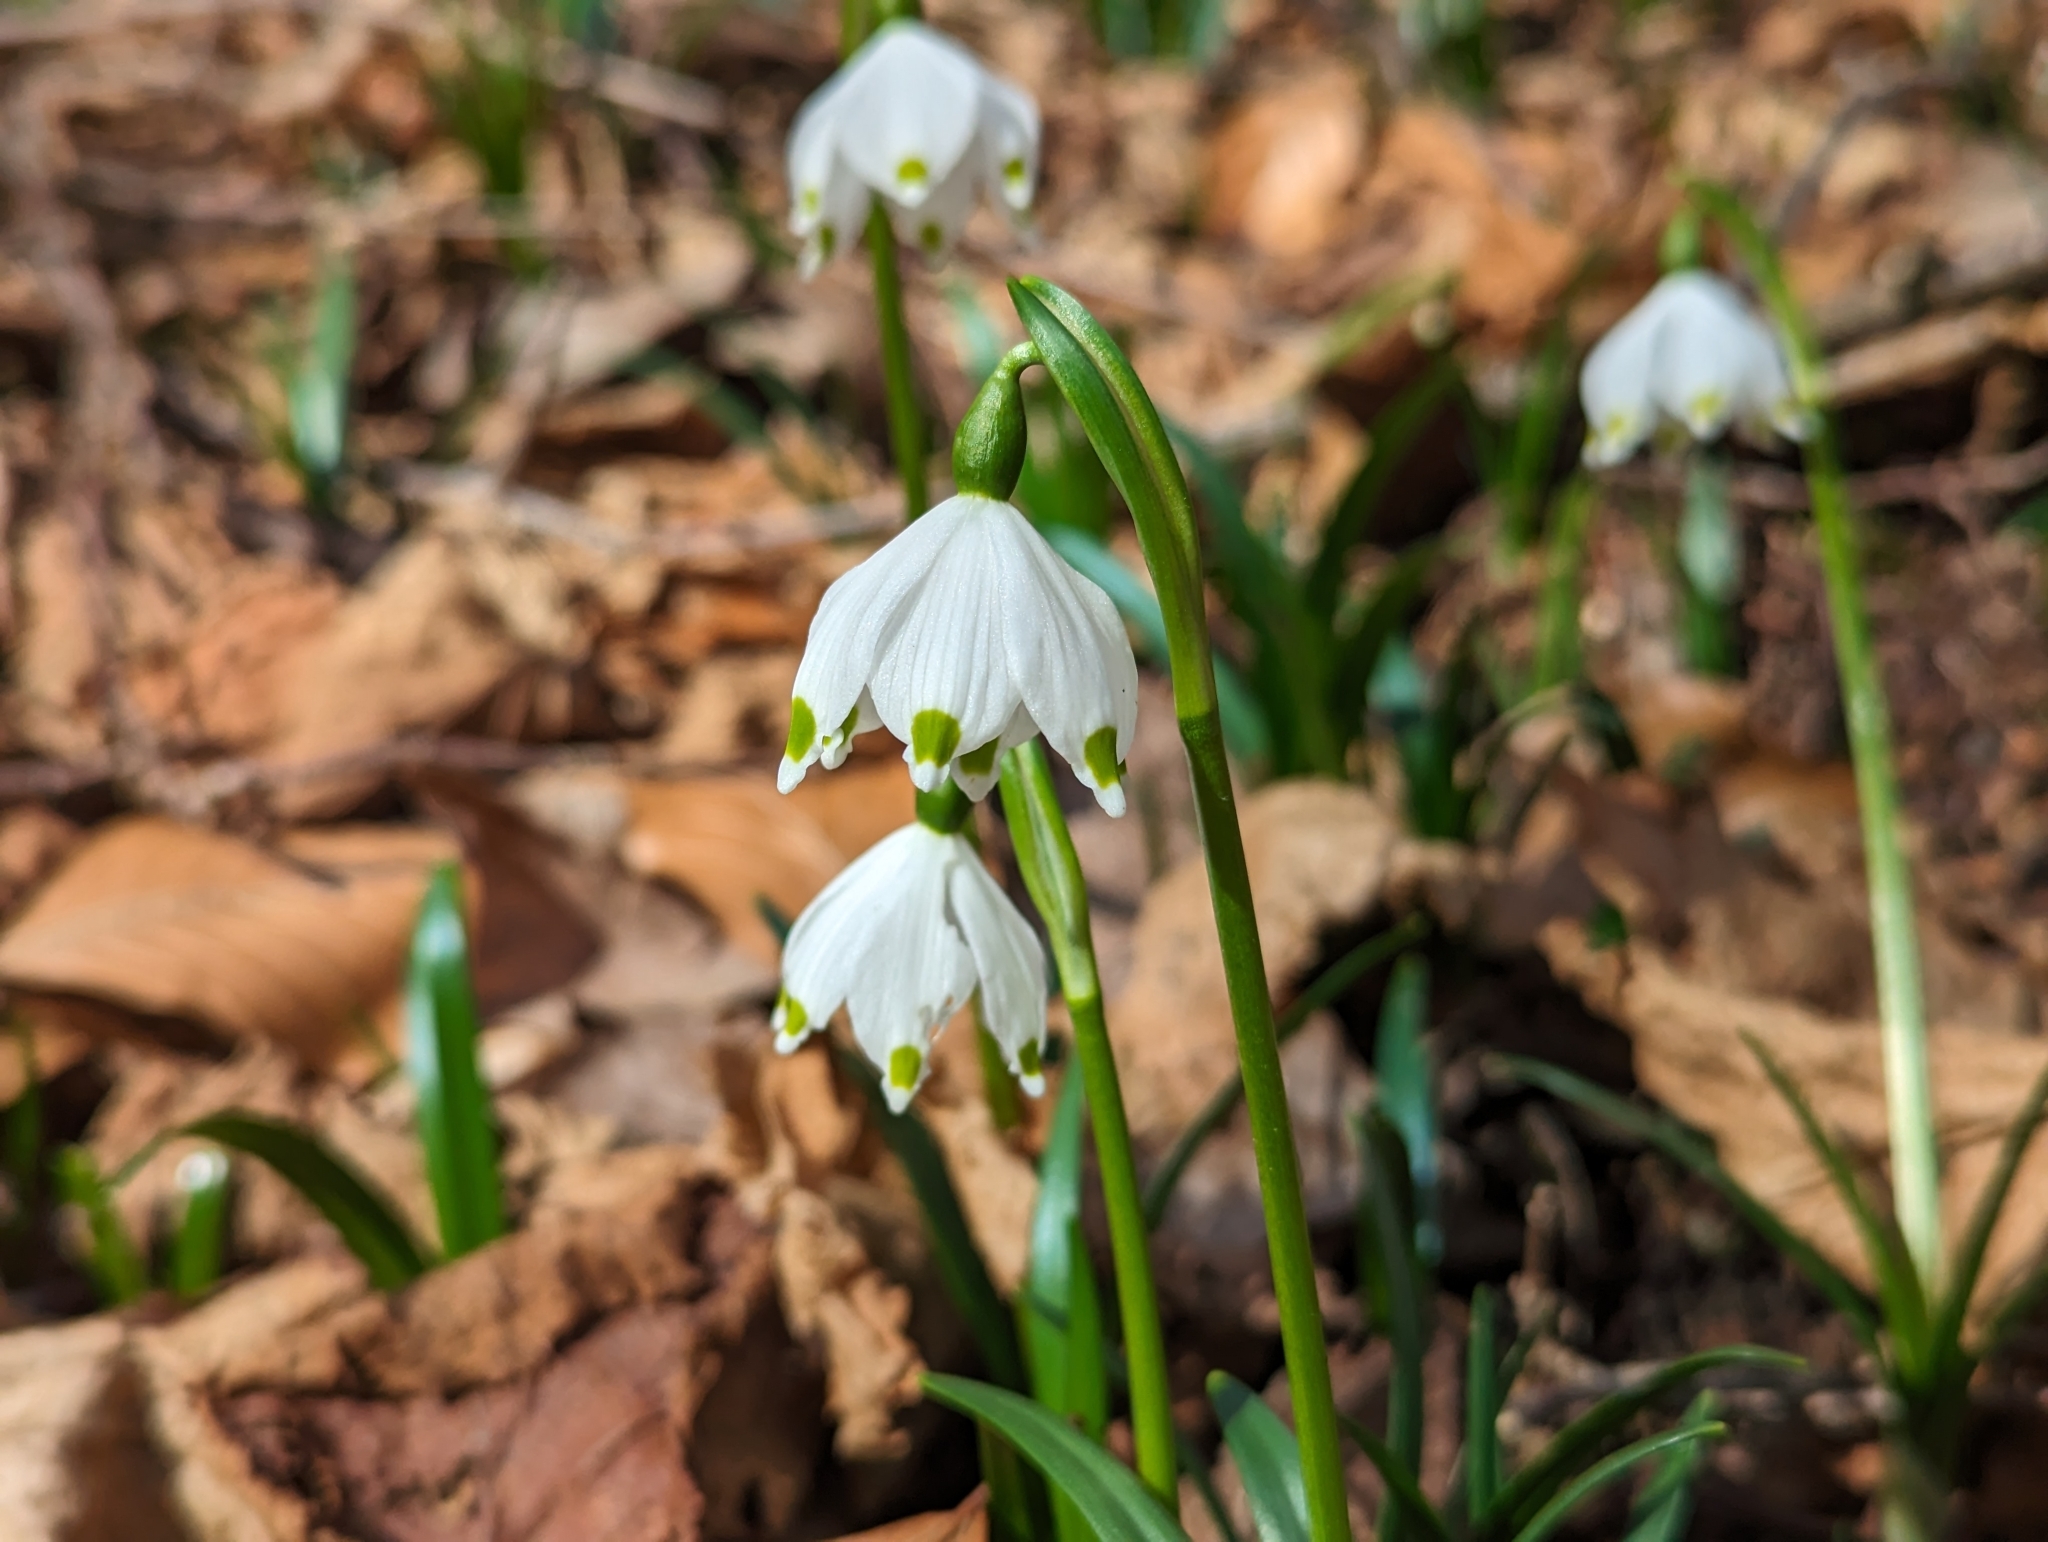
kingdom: Plantae
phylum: Tracheophyta
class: Liliopsida
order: Asparagales
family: Amaryllidaceae
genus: Leucojum
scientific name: Leucojum vernum
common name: Spring snowflake
